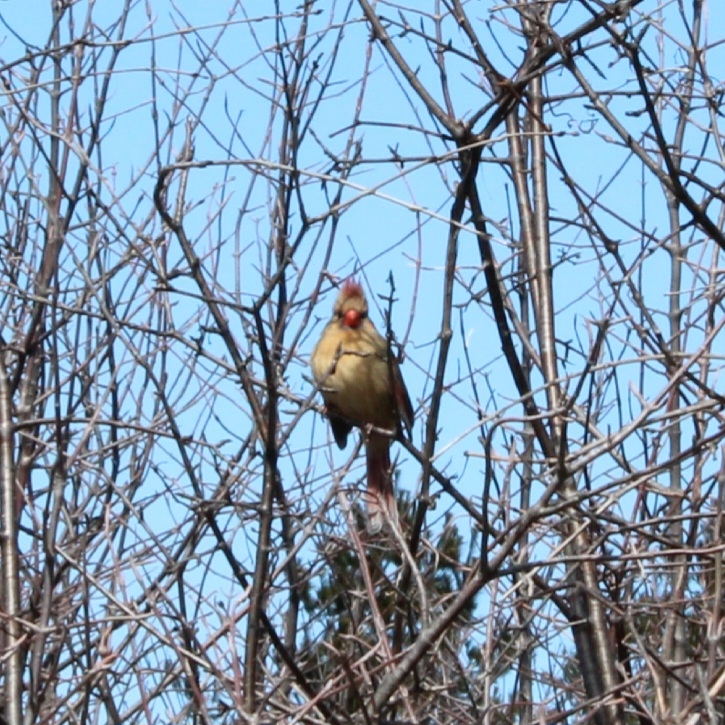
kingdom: Animalia
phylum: Chordata
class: Aves
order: Passeriformes
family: Cardinalidae
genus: Cardinalis
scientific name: Cardinalis cardinalis
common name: Northern cardinal
